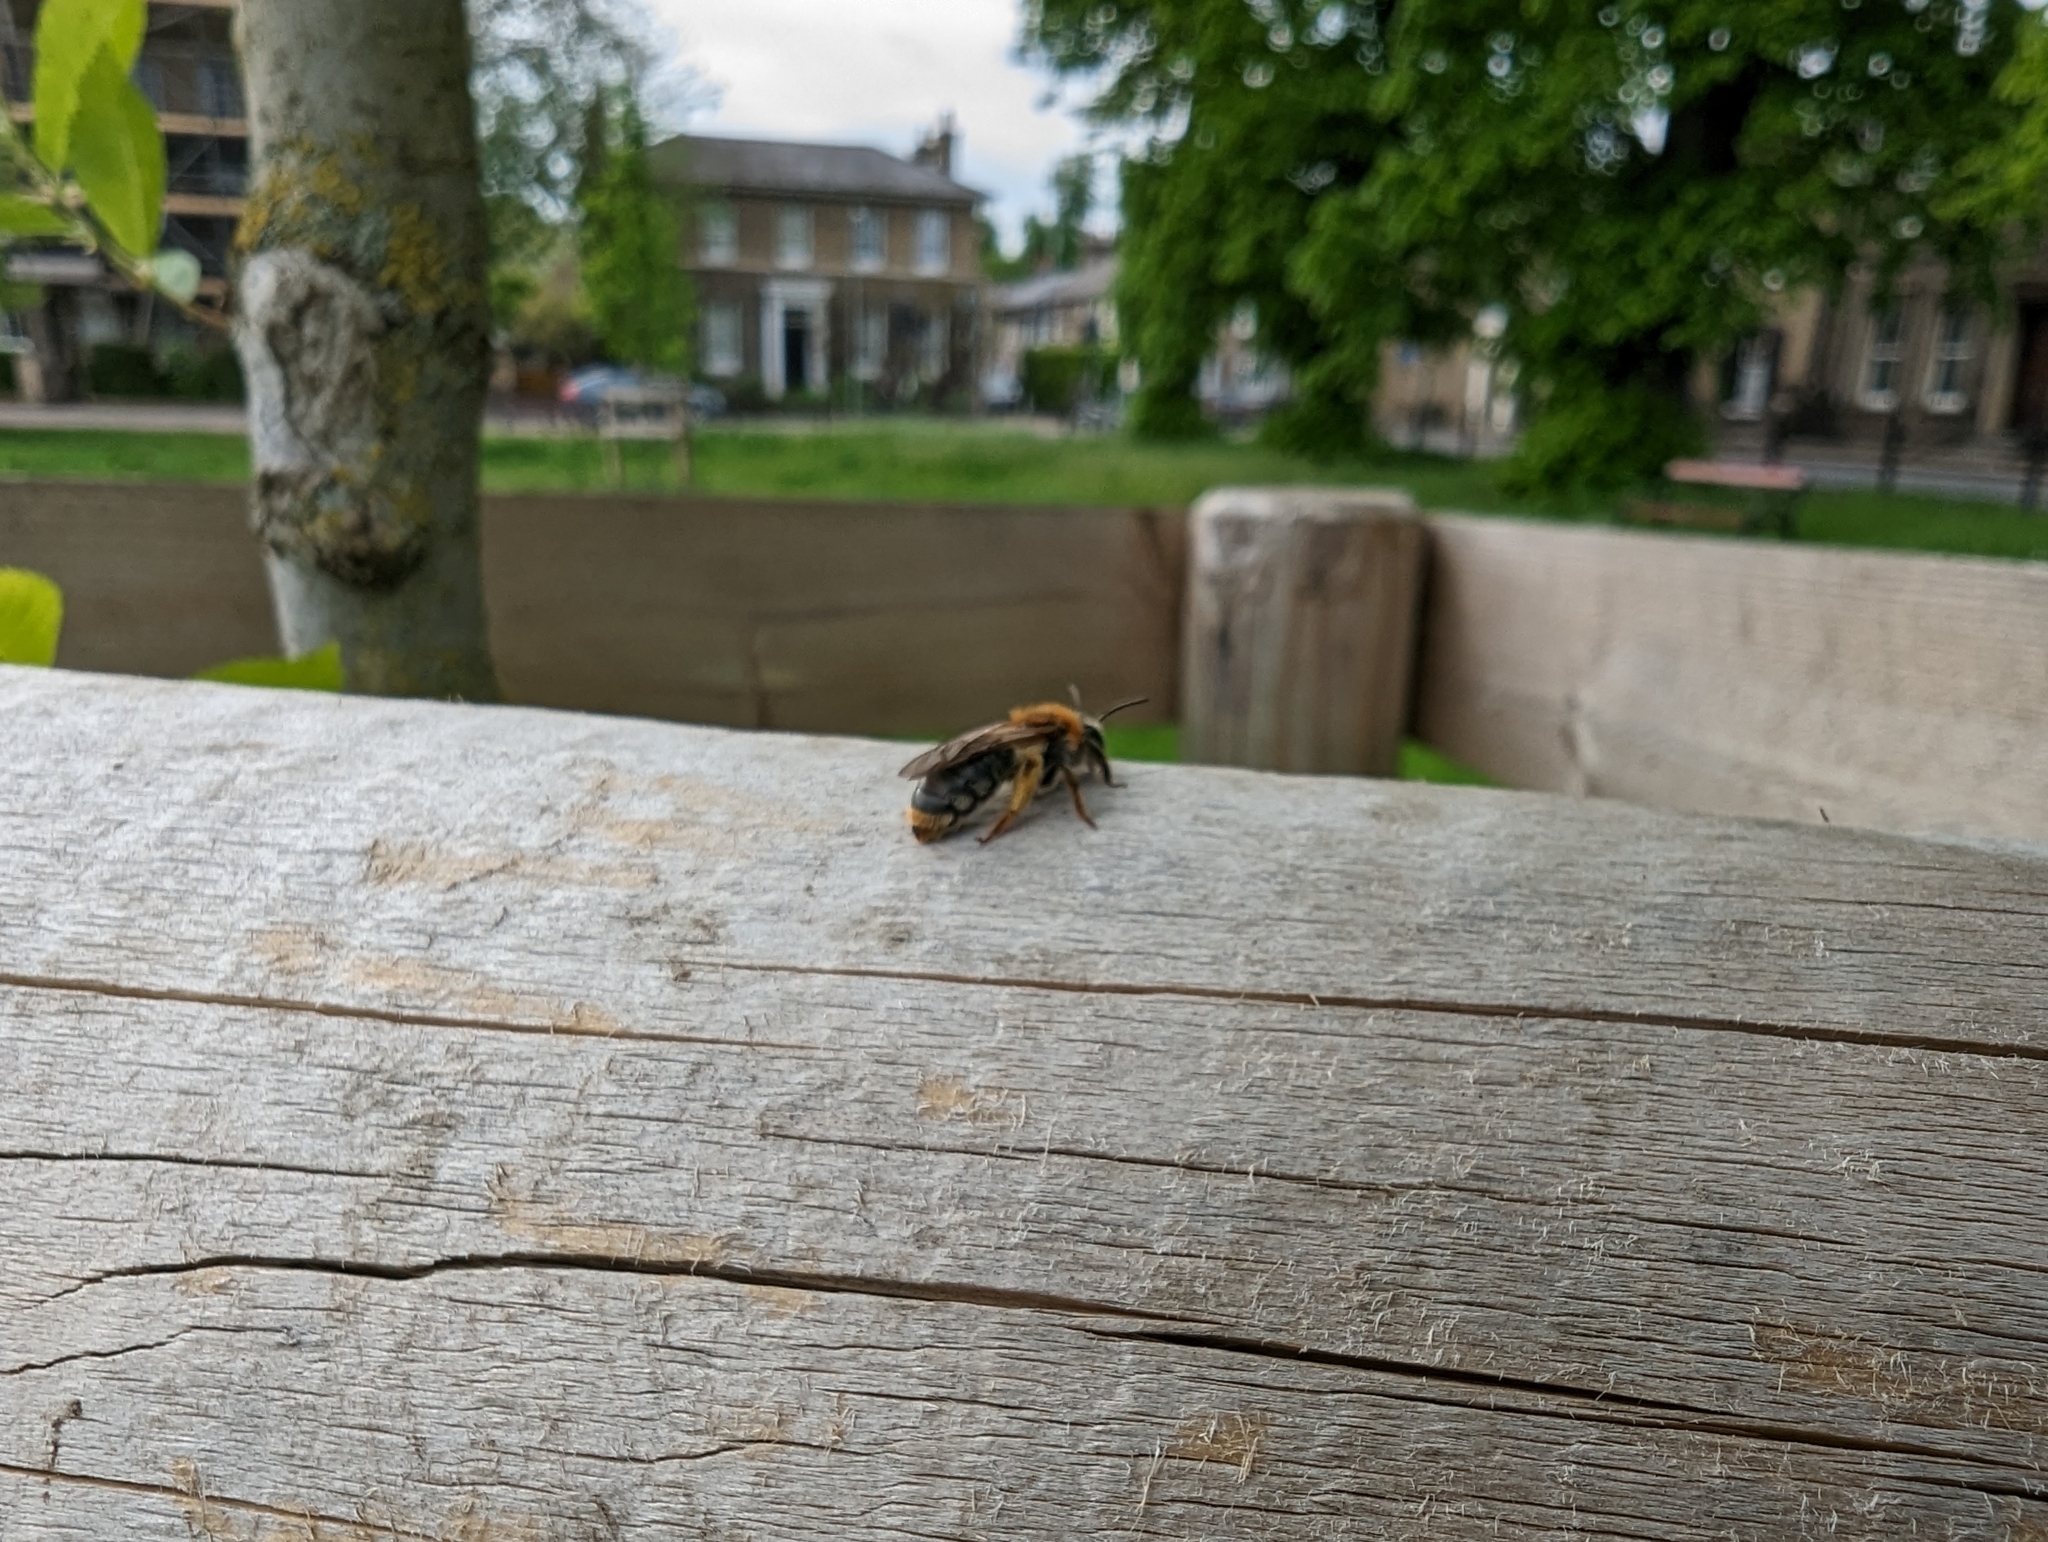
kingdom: Animalia
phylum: Arthropoda
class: Insecta
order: Hymenoptera
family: Andrenidae
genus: Andrena
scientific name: Andrena haemorrhoa
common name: Early mining bee
